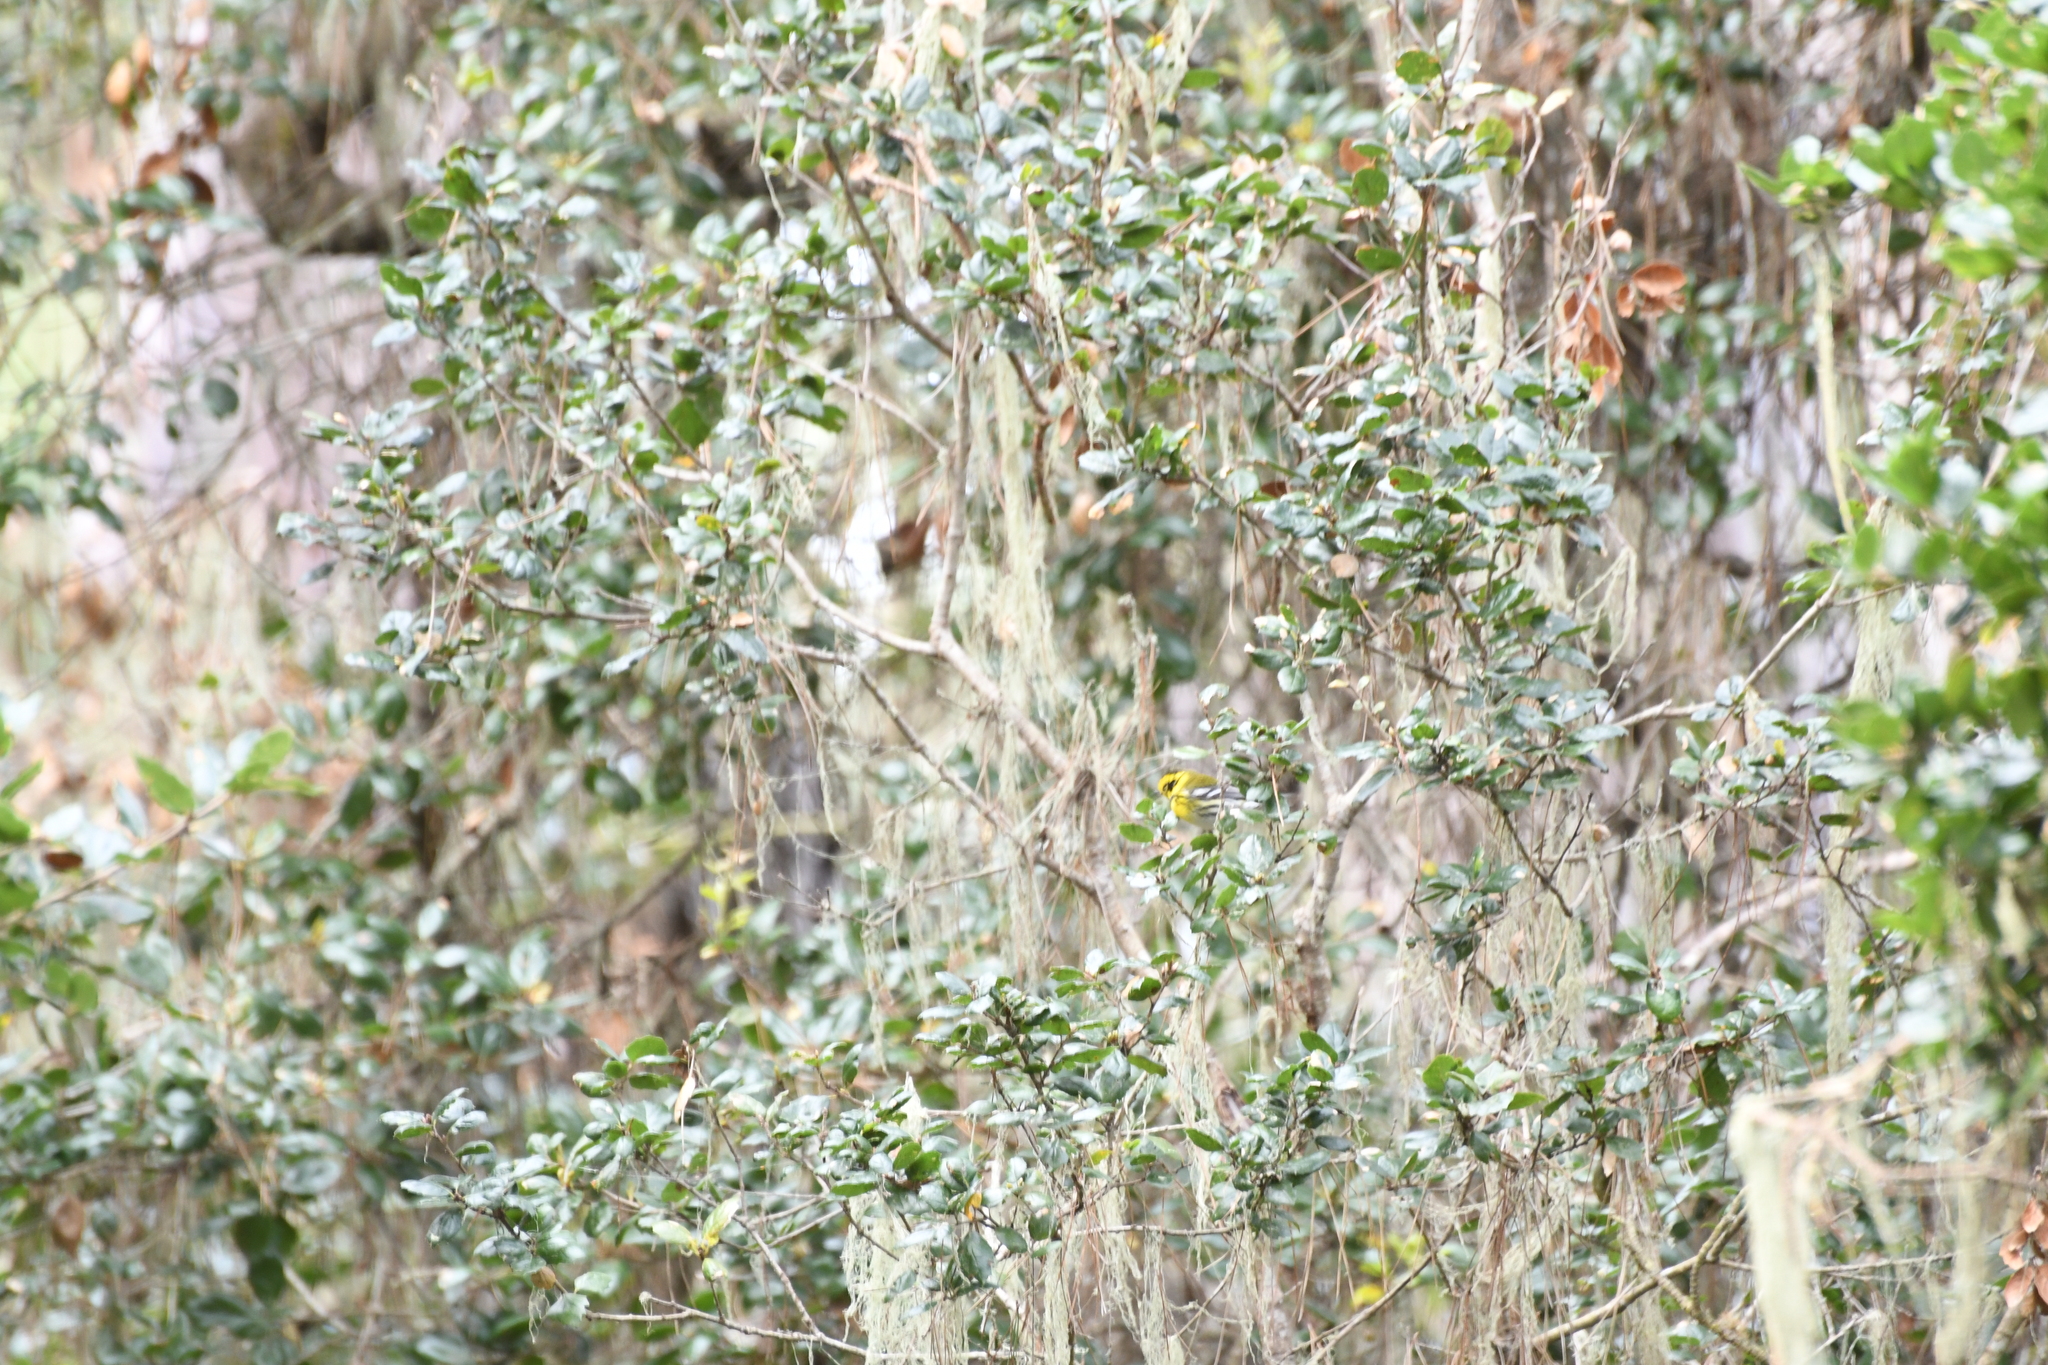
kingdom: Animalia
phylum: Chordata
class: Aves
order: Passeriformes
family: Parulidae
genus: Setophaga
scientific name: Setophaga townsendi
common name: Townsend's warbler
